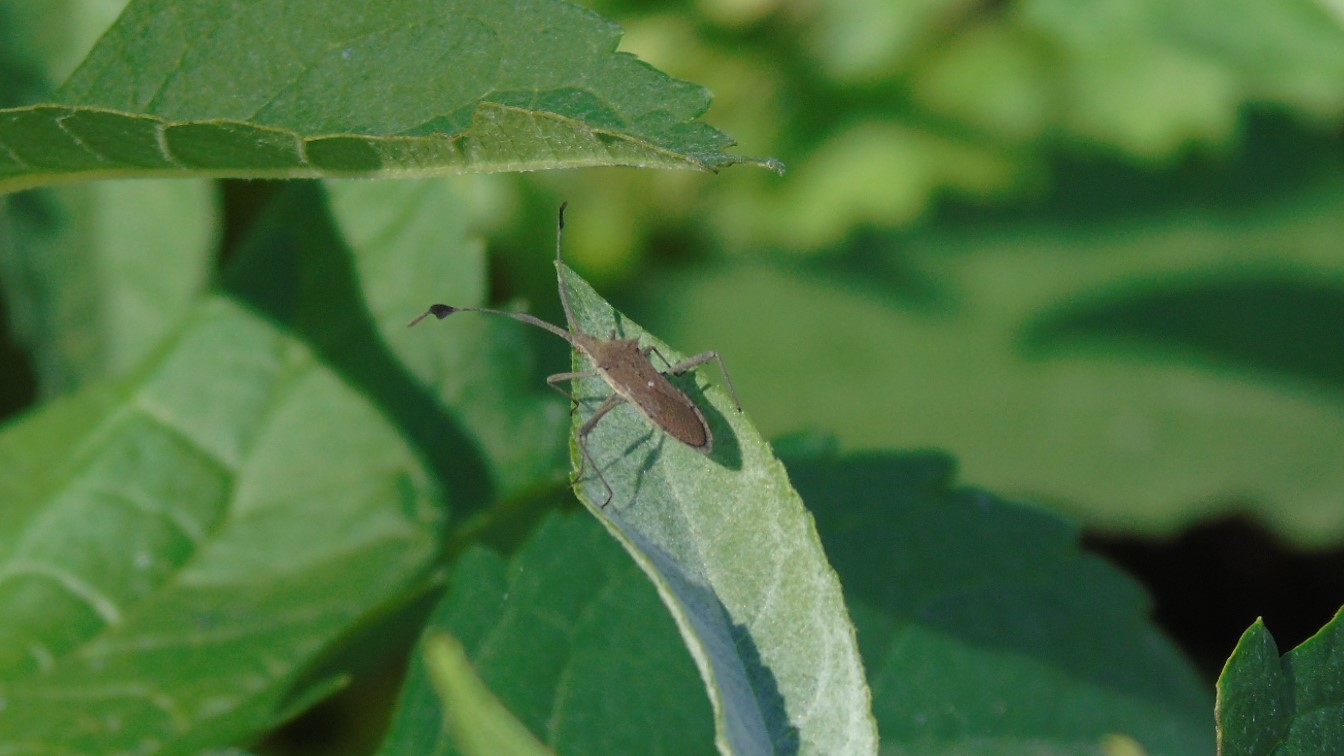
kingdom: Animalia
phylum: Arthropoda
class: Insecta
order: Hemiptera
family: Coreidae
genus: Chariesterus
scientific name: Chariesterus
